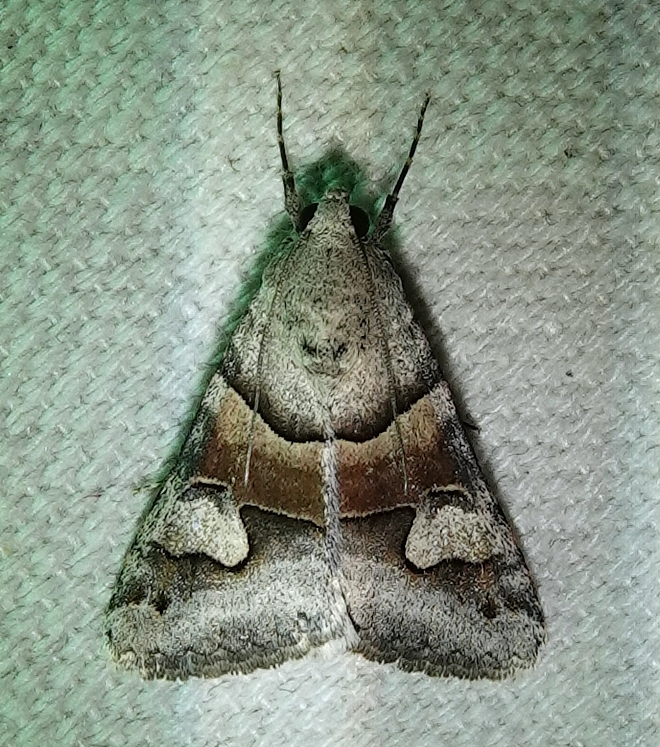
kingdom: Animalia
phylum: Arthropoda
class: Insecta
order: Lepidoptera
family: Erebidae
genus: Drasteria
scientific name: Drasteria pallescens
